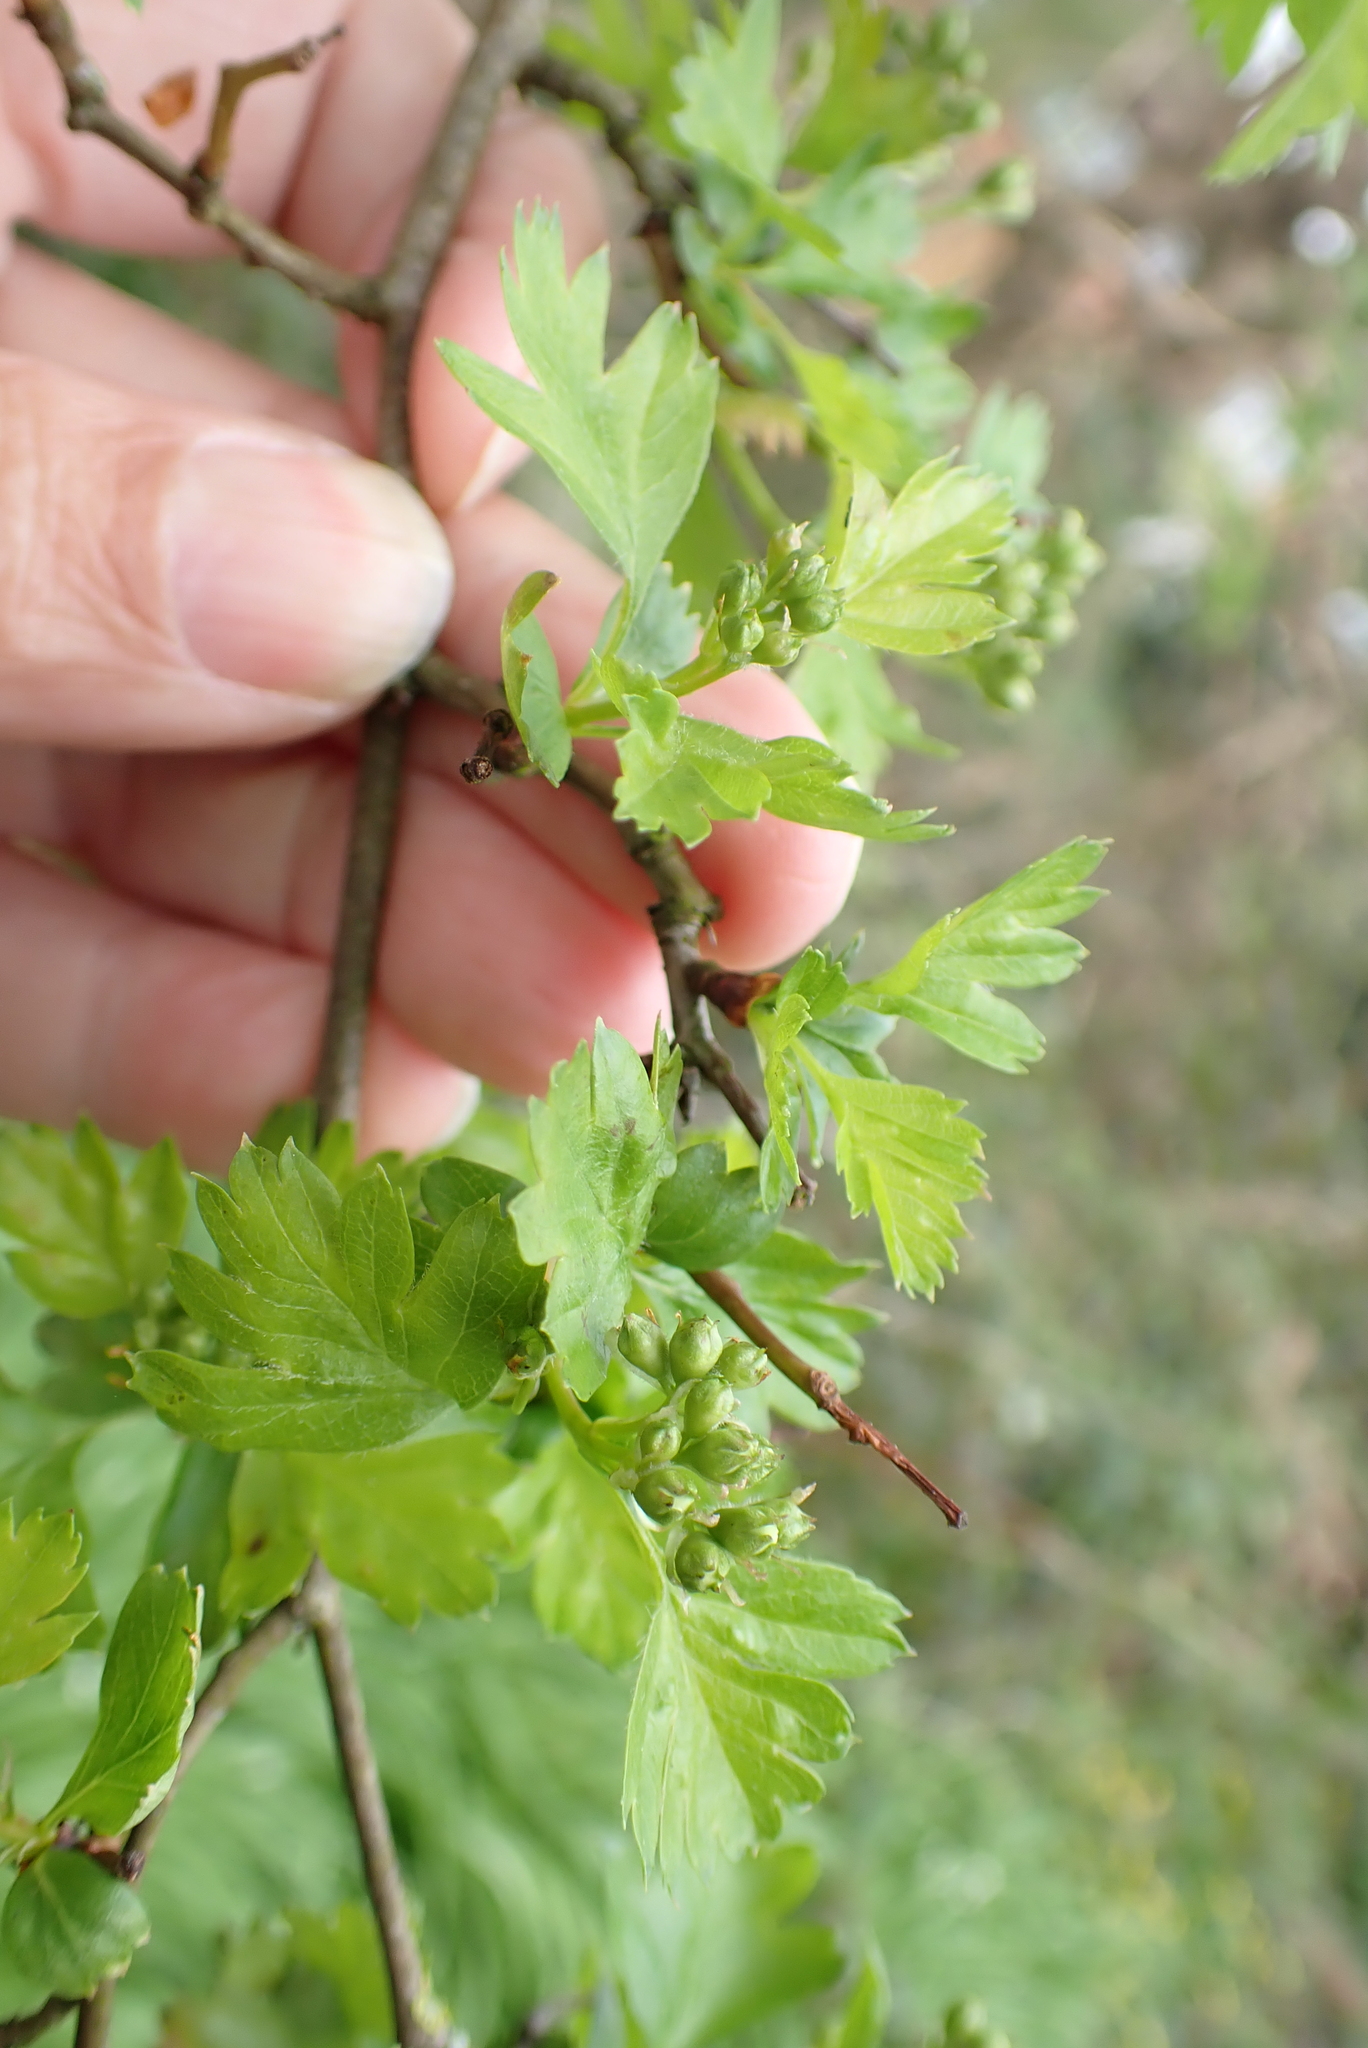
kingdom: Plantae
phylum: Tracheophyta
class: Magnoliopsida
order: Rosales
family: Rosaceae
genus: Crataegus
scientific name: Crataegus monogyna
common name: Hawthorn
